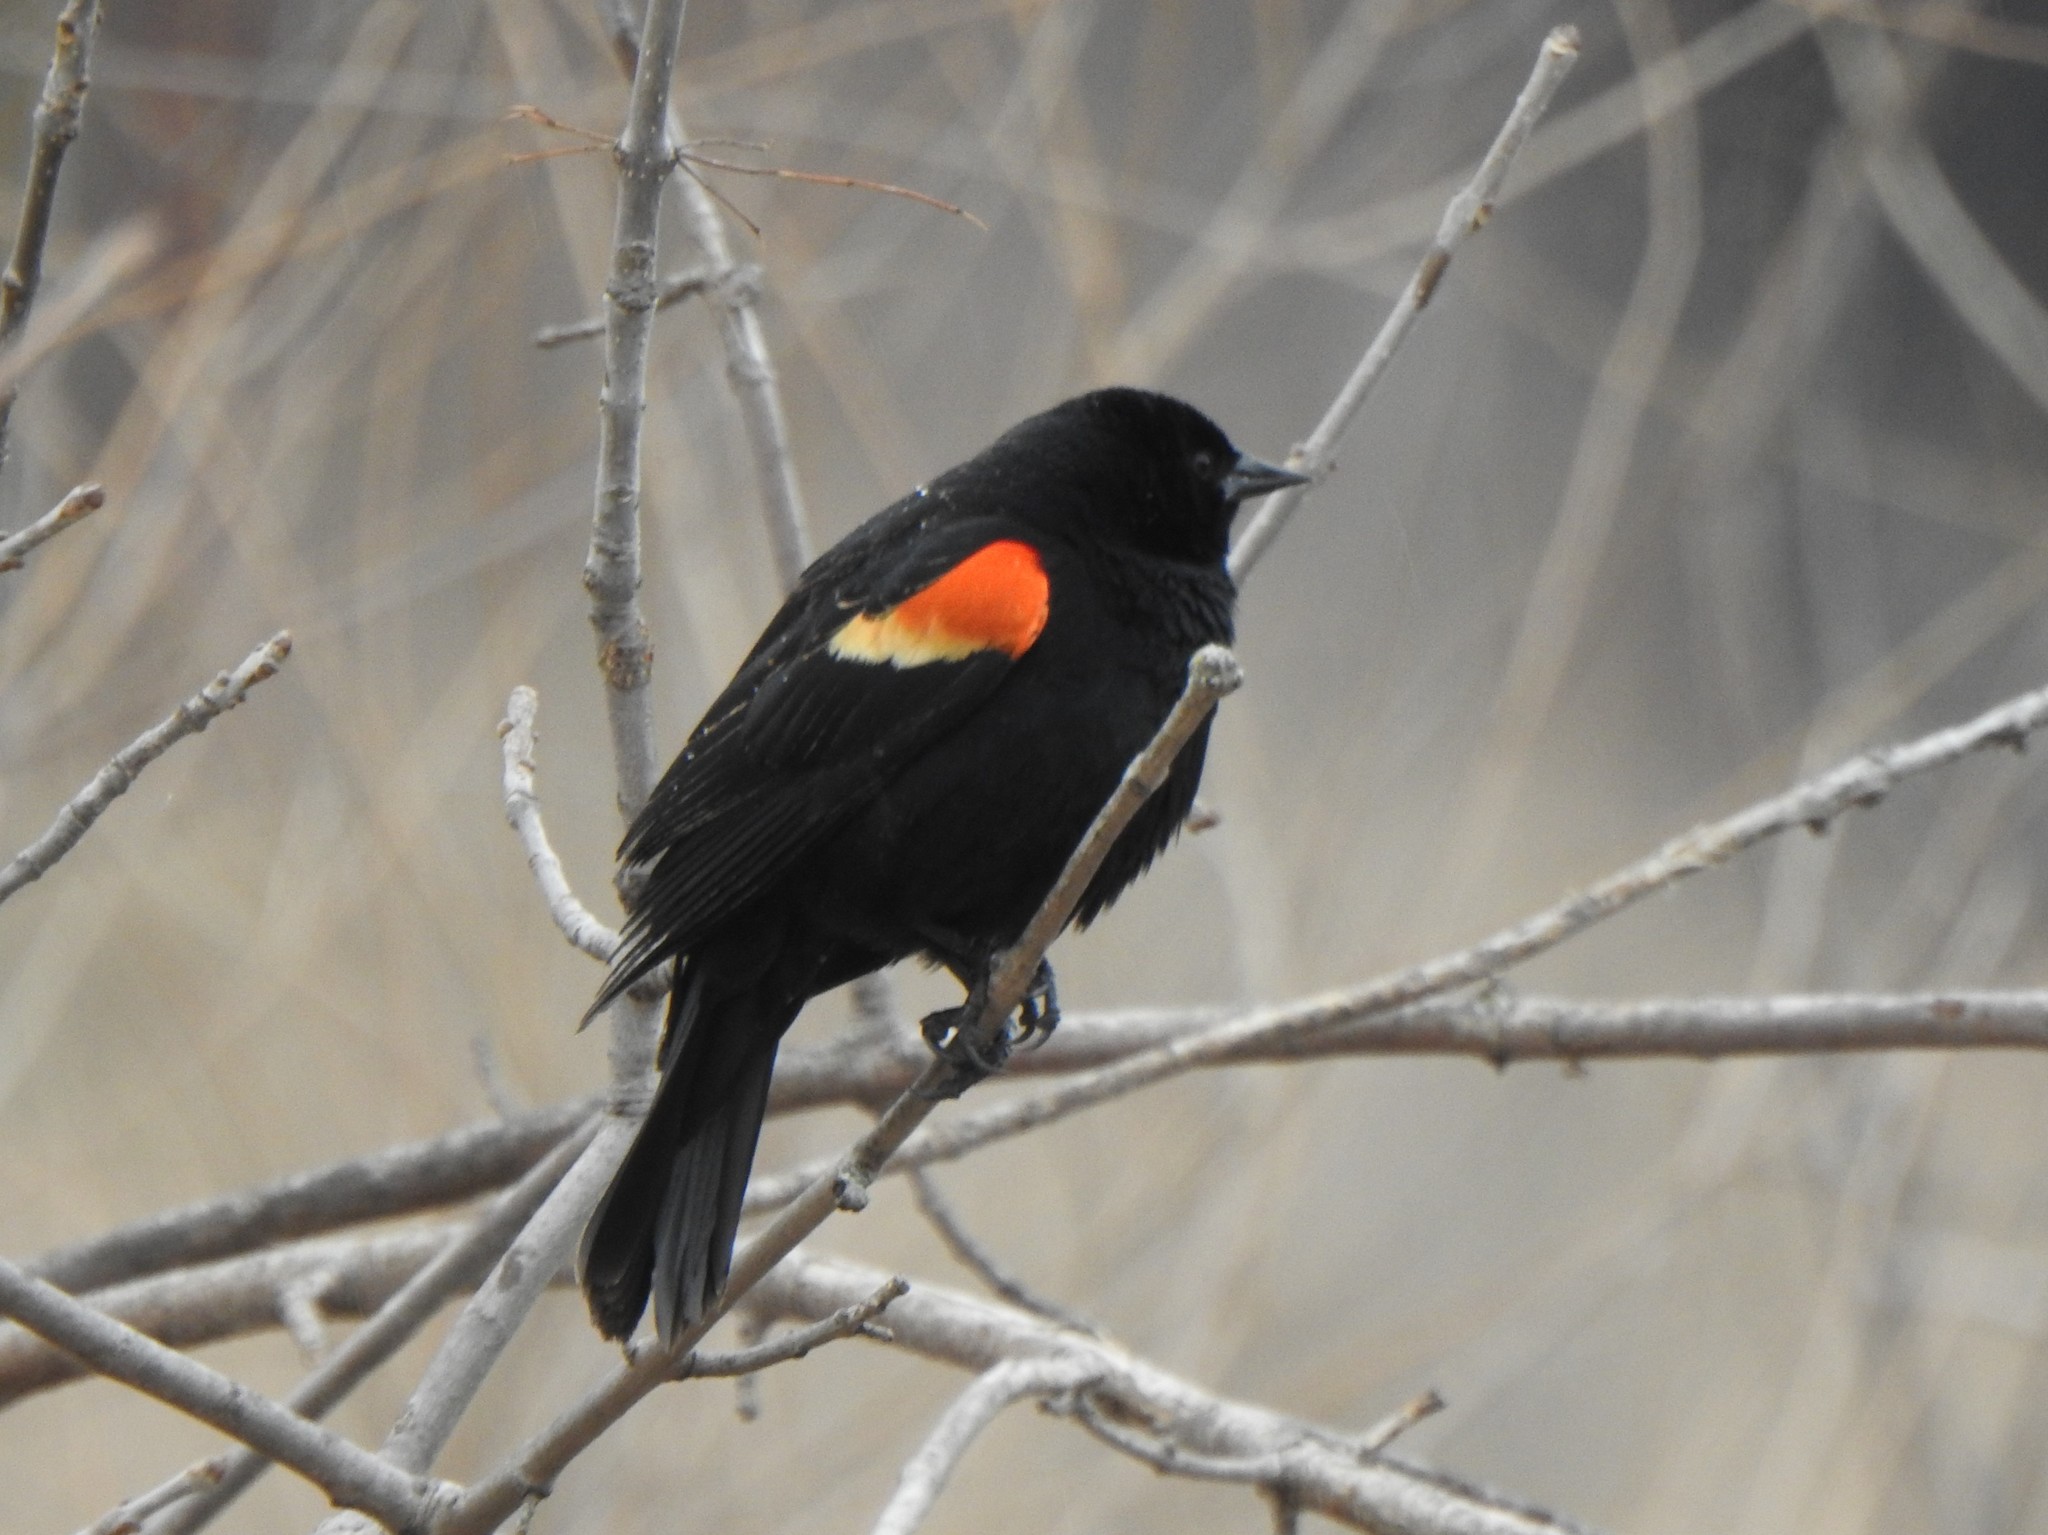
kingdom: Animalia
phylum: Chordata
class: Aves
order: Passeriformes
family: Icteridae
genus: Agelaius
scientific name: Agelaius phoeniceus
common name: Red-winged blackbird
